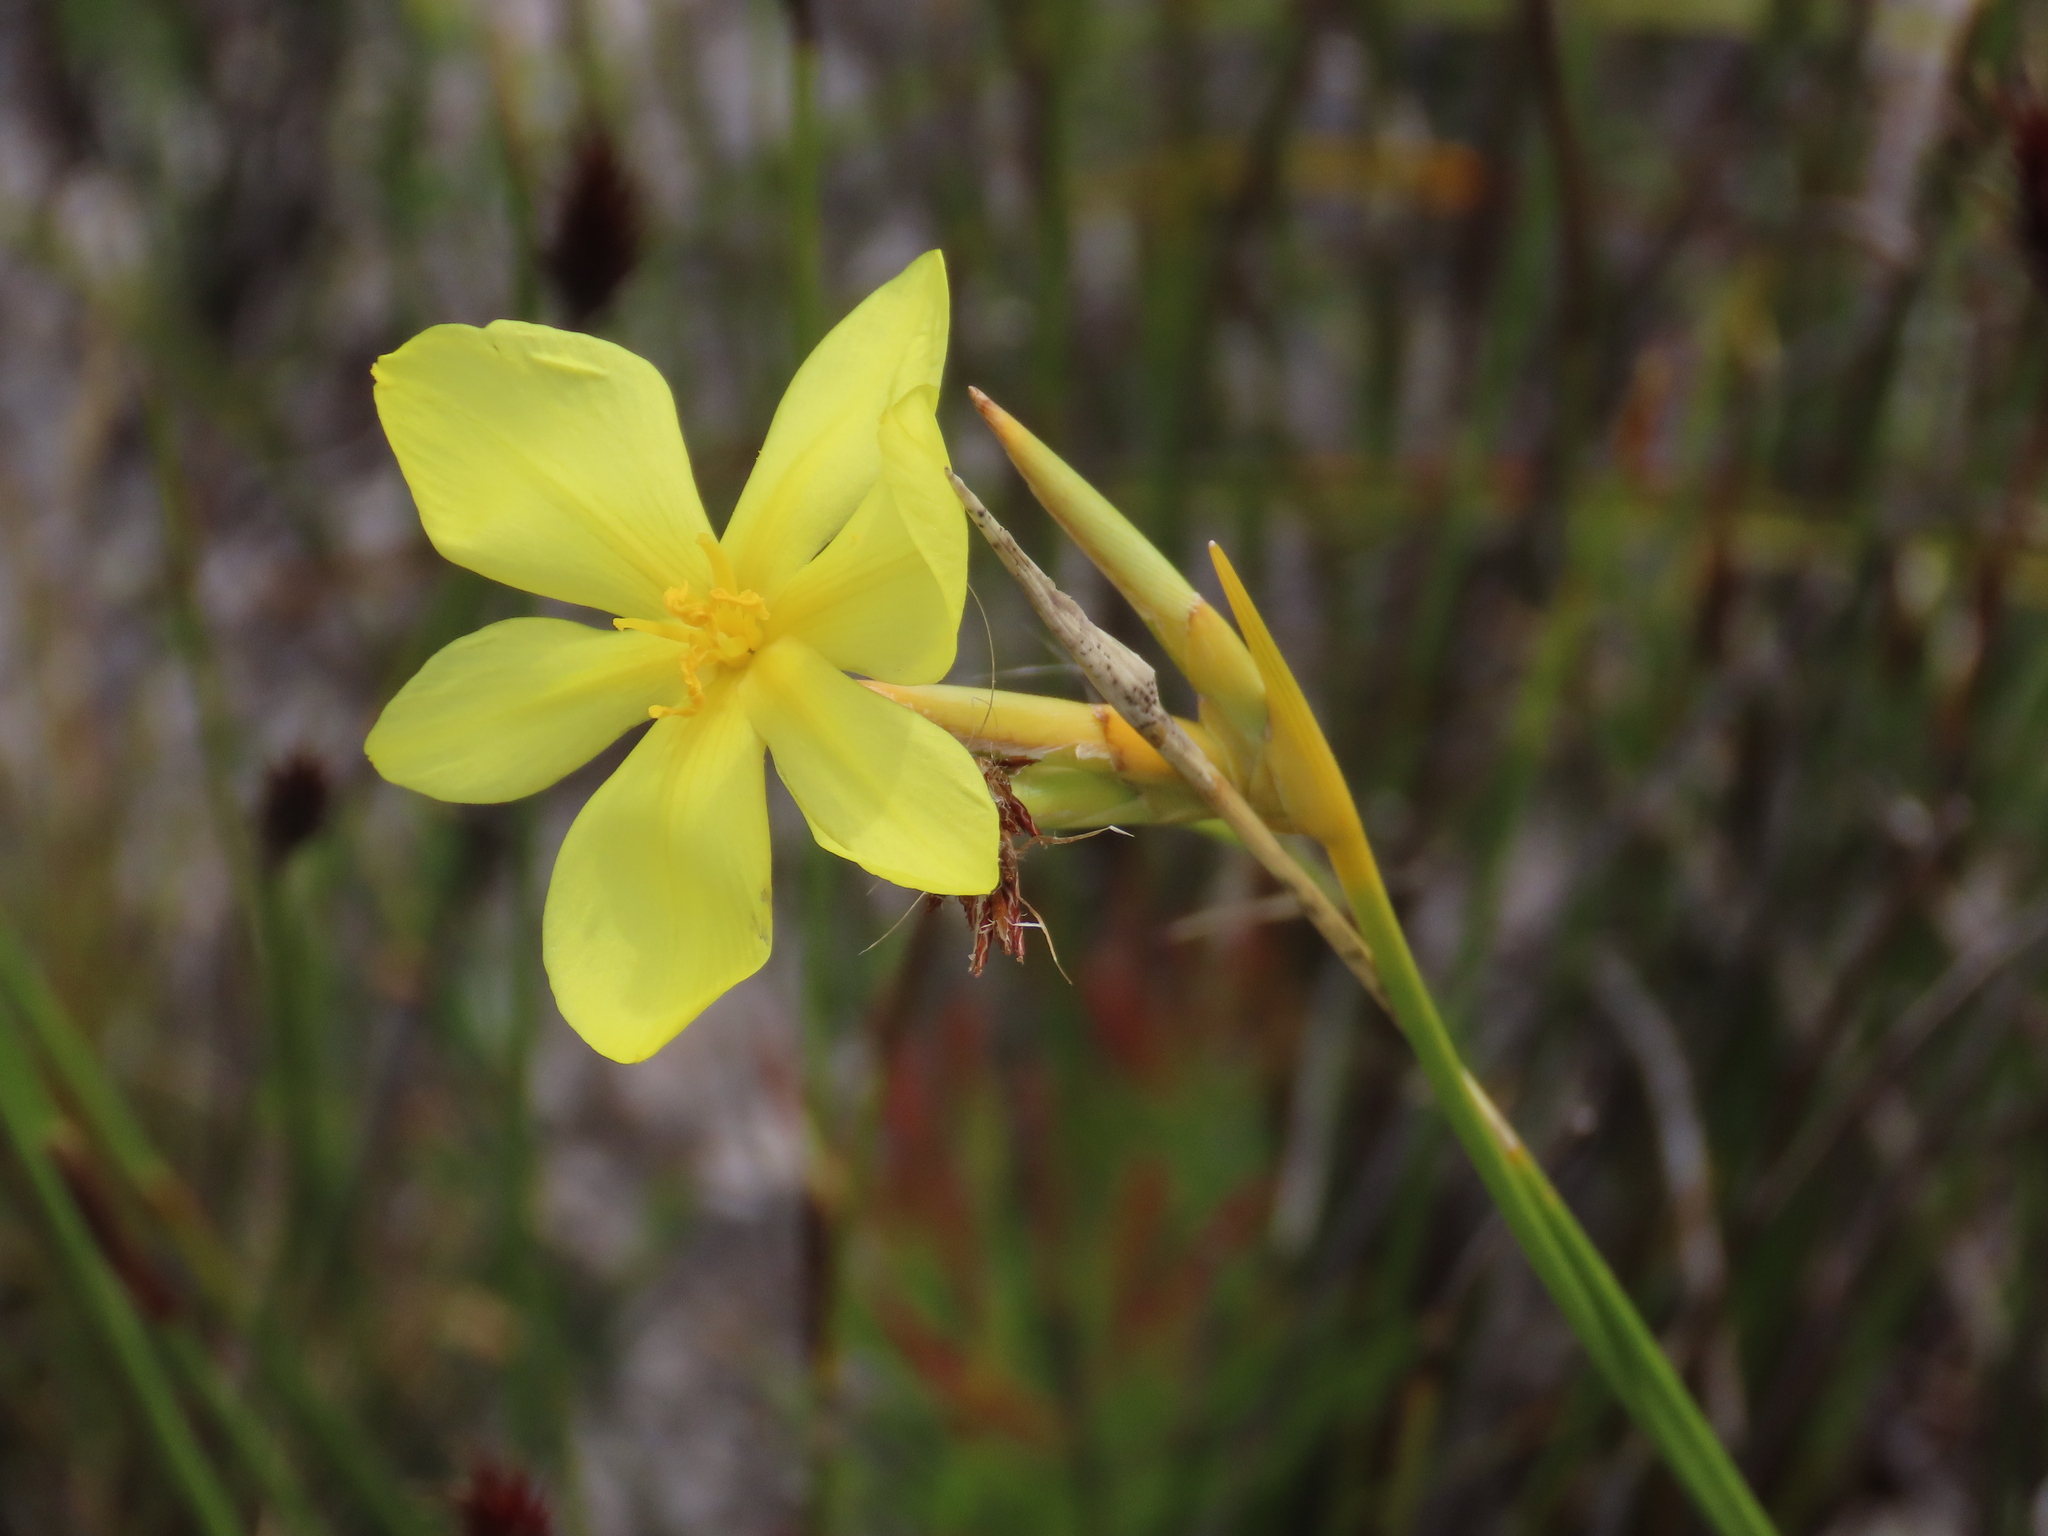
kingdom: Plantae
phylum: Tracheophyta
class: Liliopsida
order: Asparagales
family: Iridaceae
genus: Bobartia
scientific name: Bobartia gladiata
